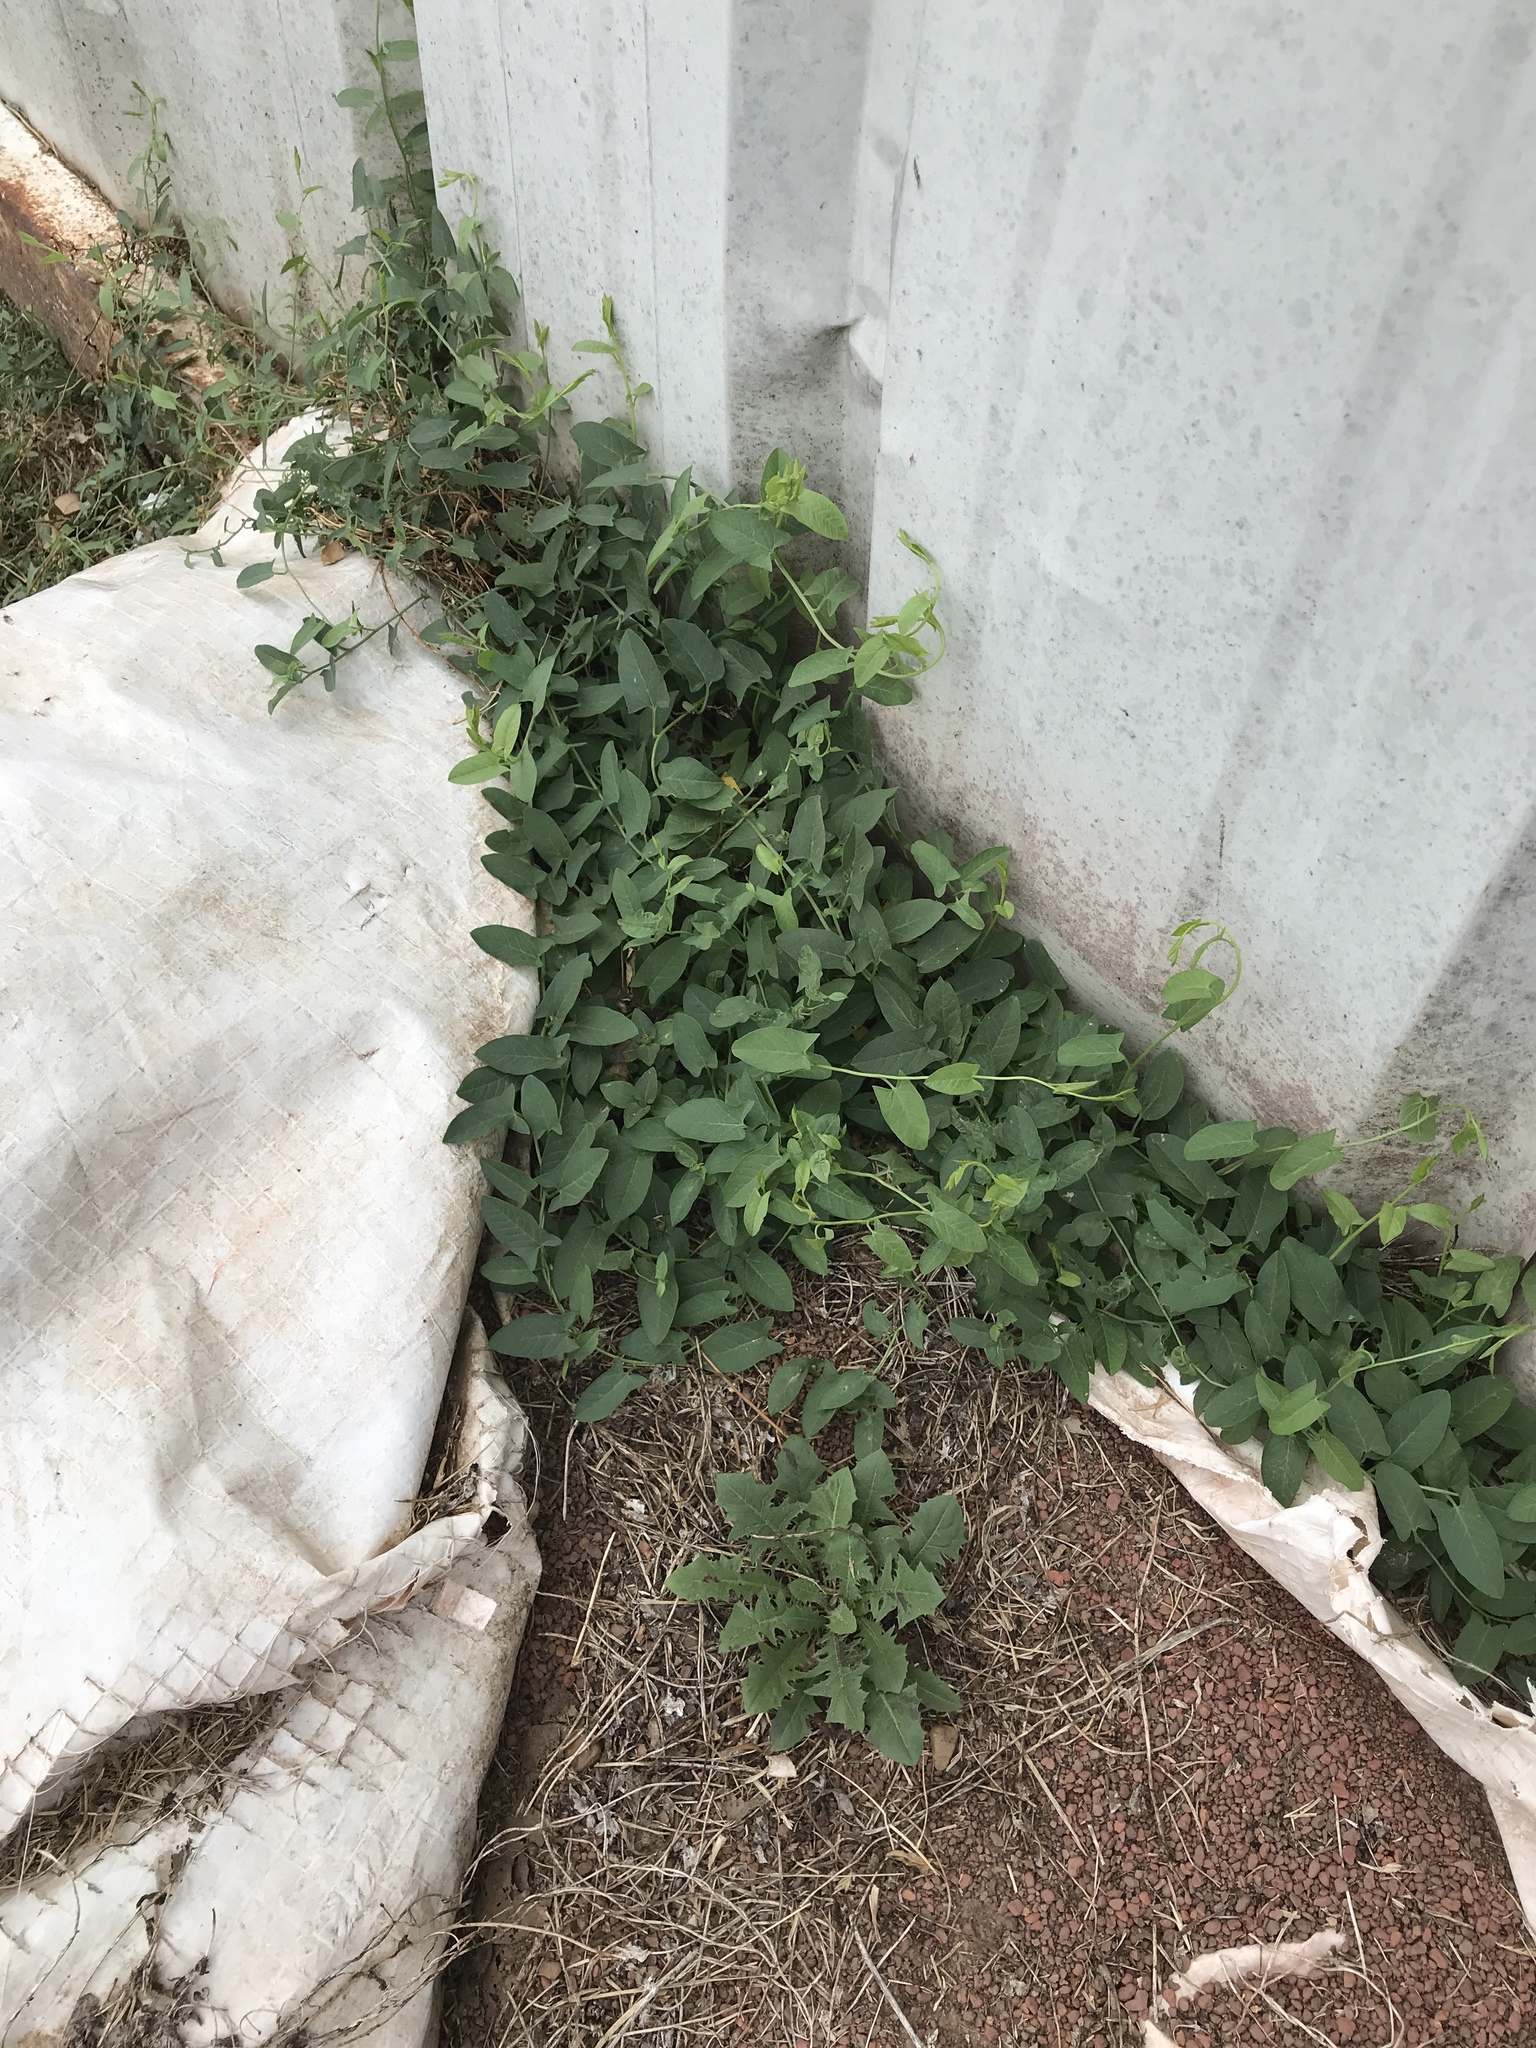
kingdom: Plantae
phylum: Tracheophyta
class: Magnoliopsida
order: Solanales
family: Convolvulaceae
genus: Convolvulus
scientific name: Convolvulus arvensis
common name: Field bindweed
